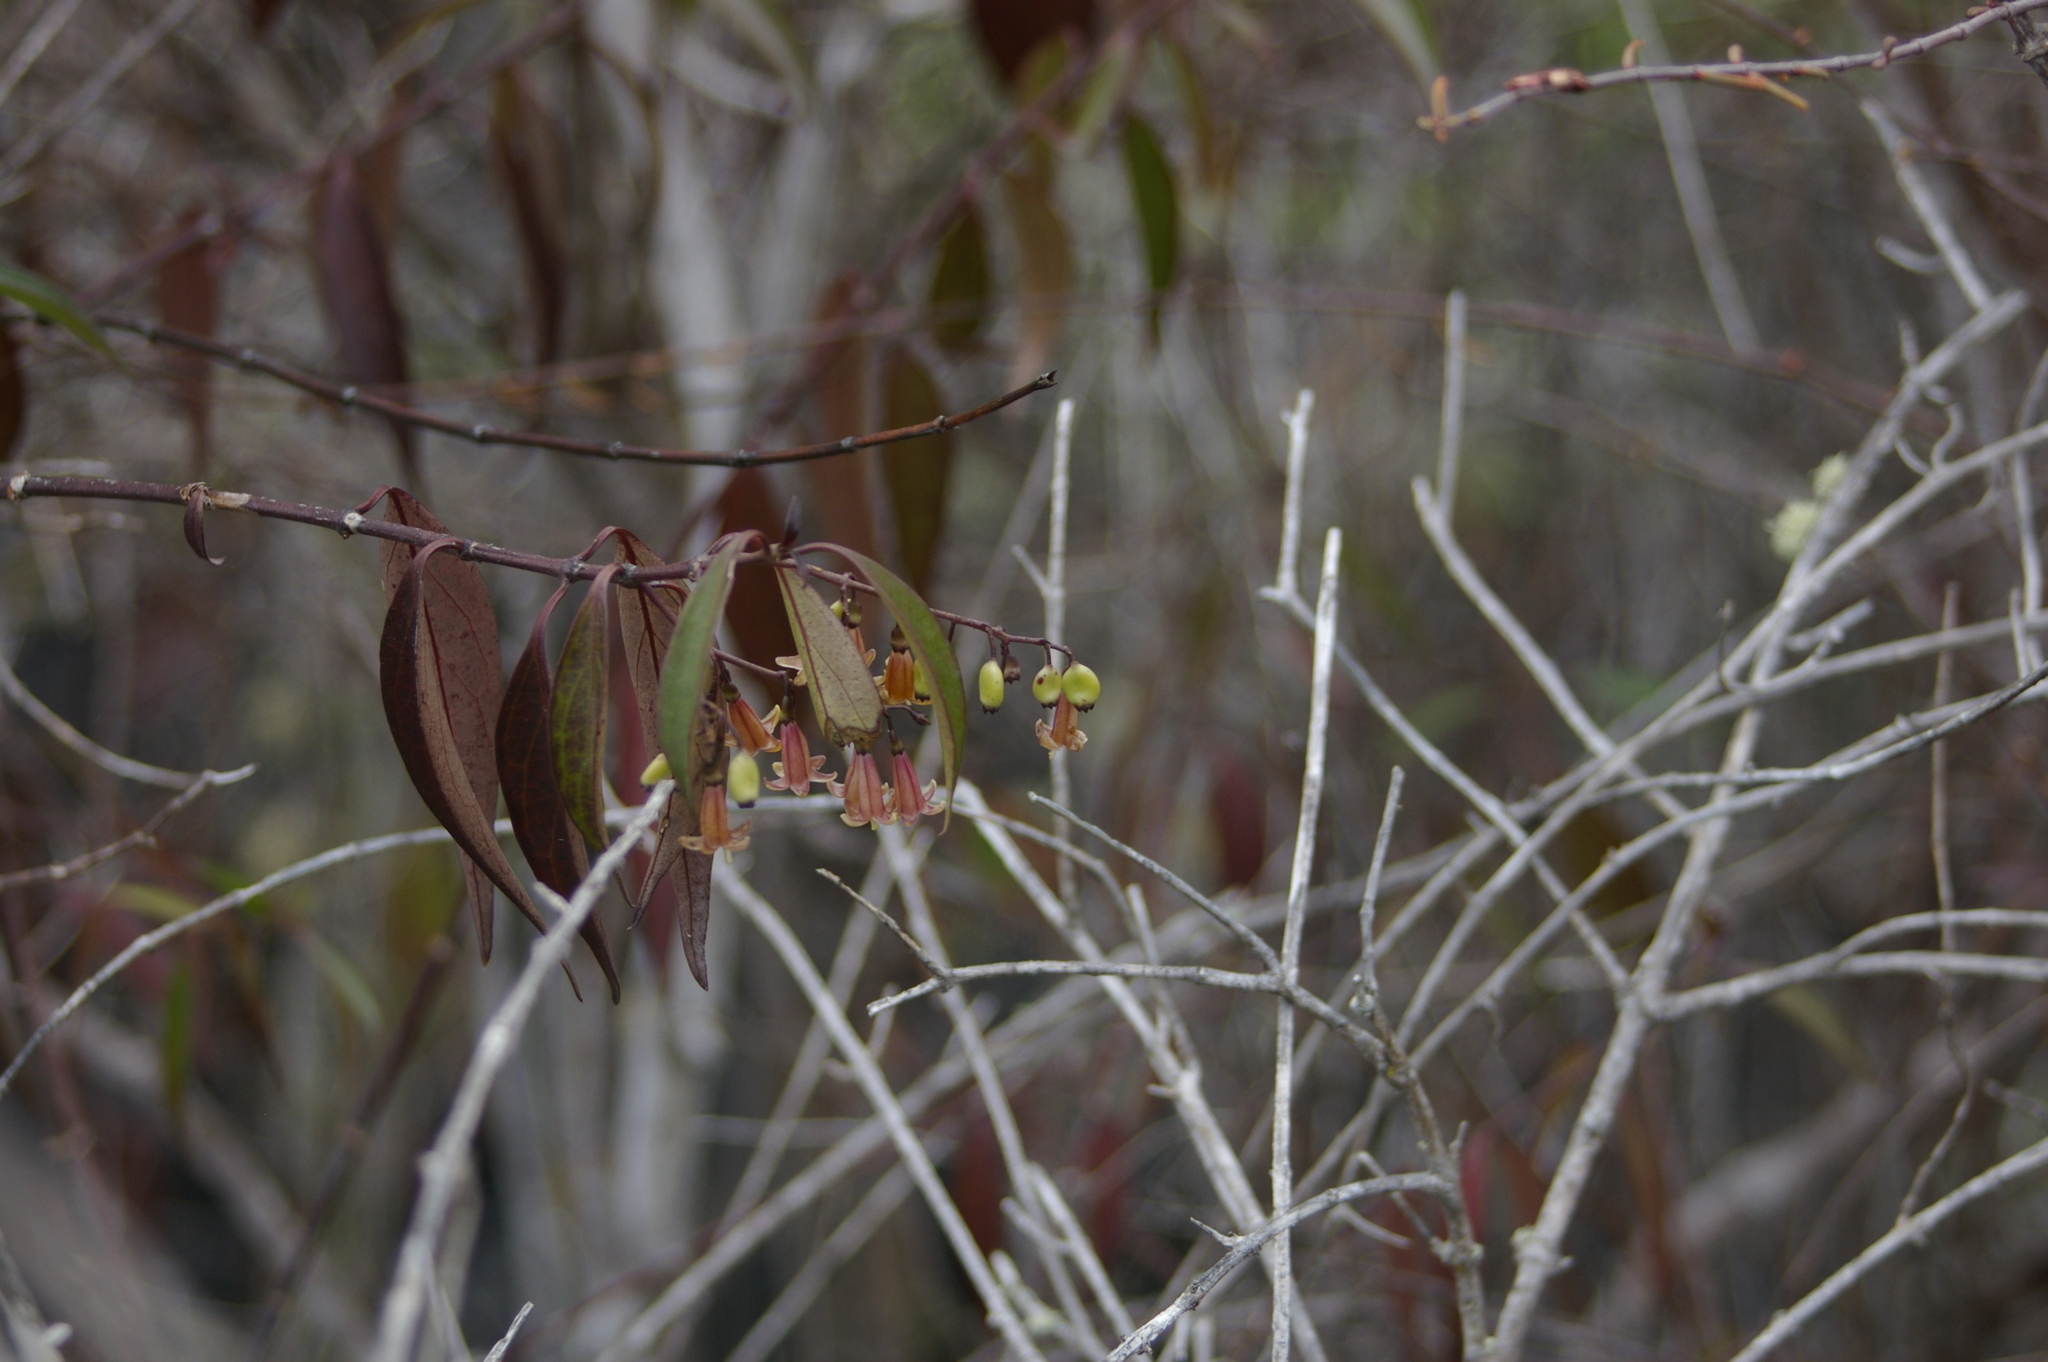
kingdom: Plantae
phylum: Tracheophyta
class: Magnoliopsida
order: Gentianales
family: Rubiaceae
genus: Chiococca
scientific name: Chiococca alba
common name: Snowberry
